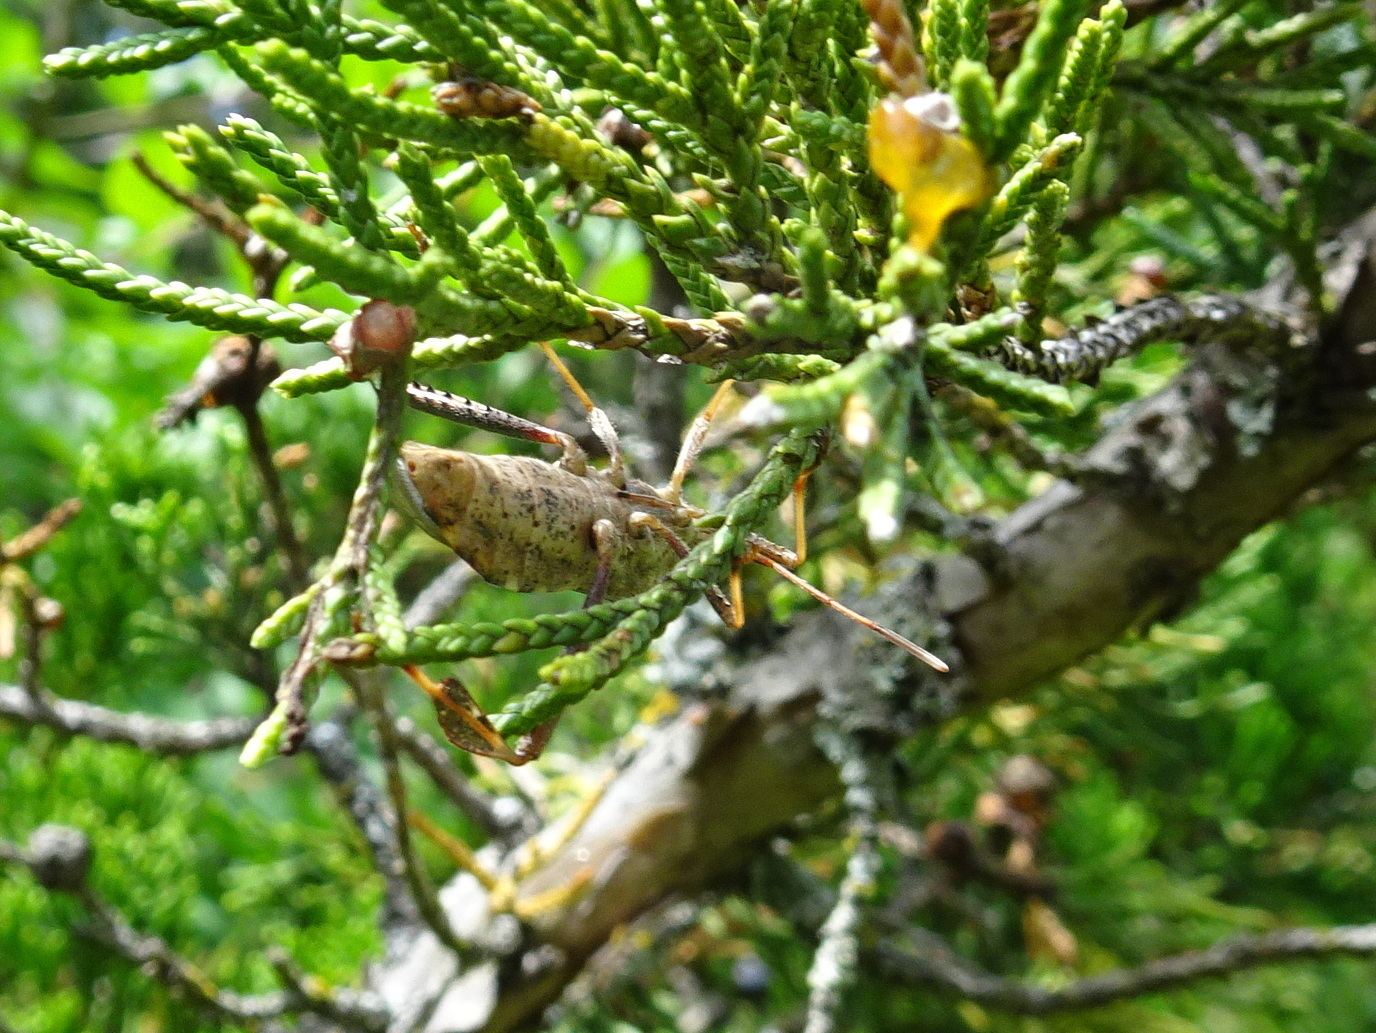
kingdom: Animalia
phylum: Arthropoda
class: Insecta
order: Hemiptera
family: Coreidae
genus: Leptoglossus
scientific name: Leptoglossus clypealis
